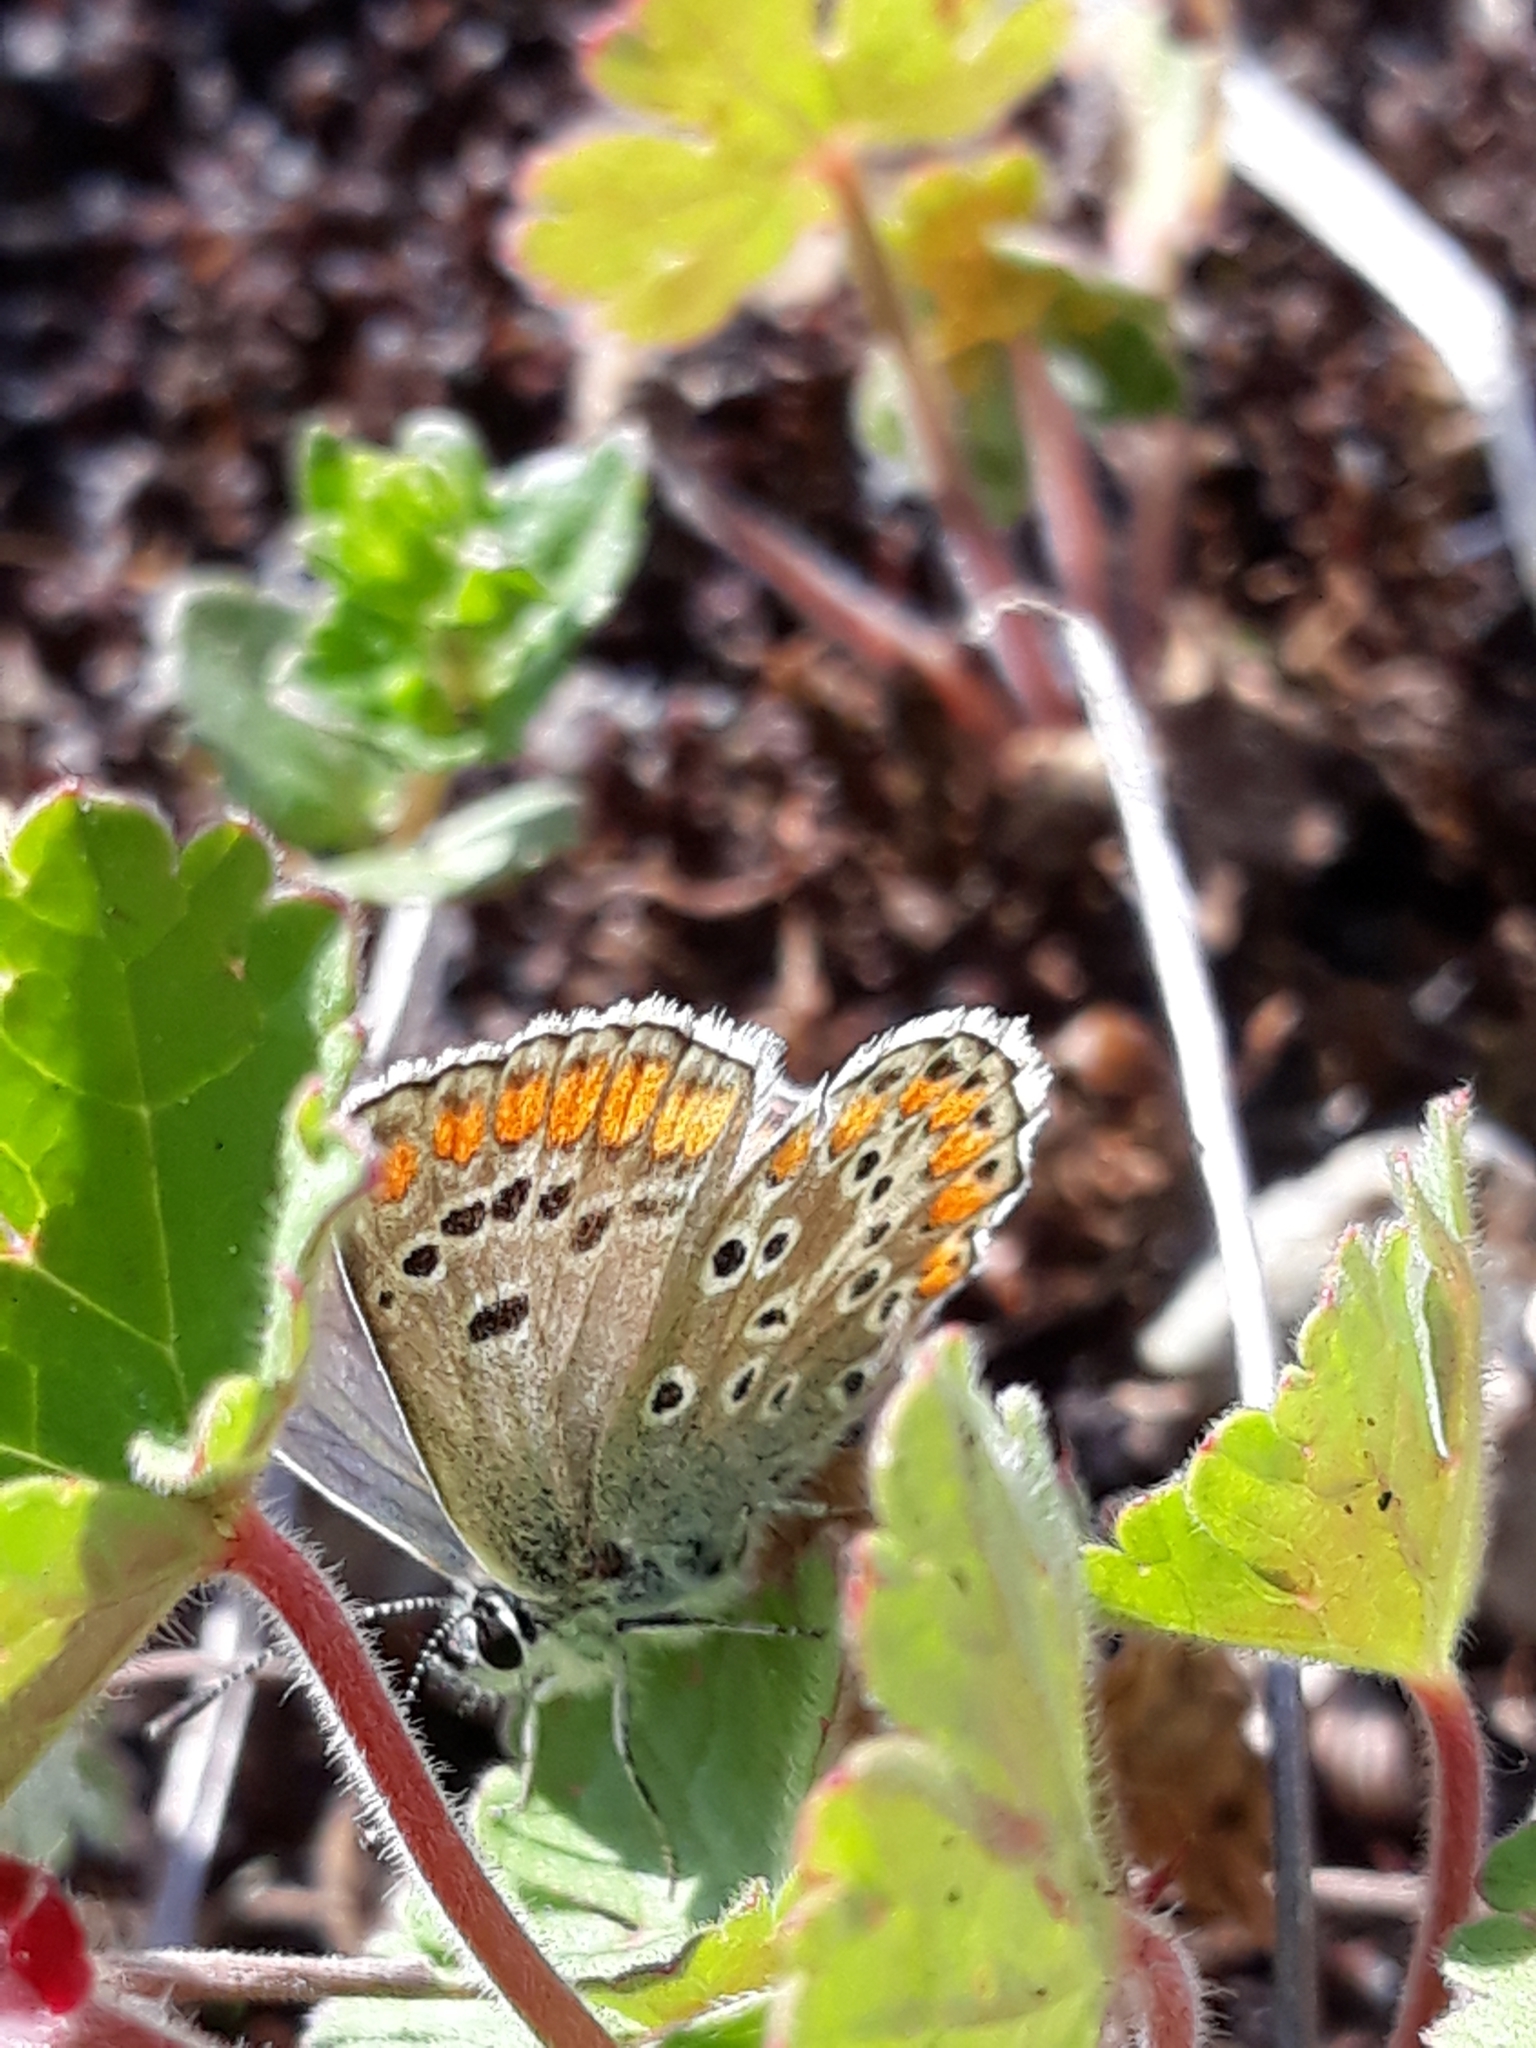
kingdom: Animalia
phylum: Arthropoda
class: Insecta
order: Lepidoptera
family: Lycaenidae
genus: Aricia
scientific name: Aricia agestis
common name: Brown argus
